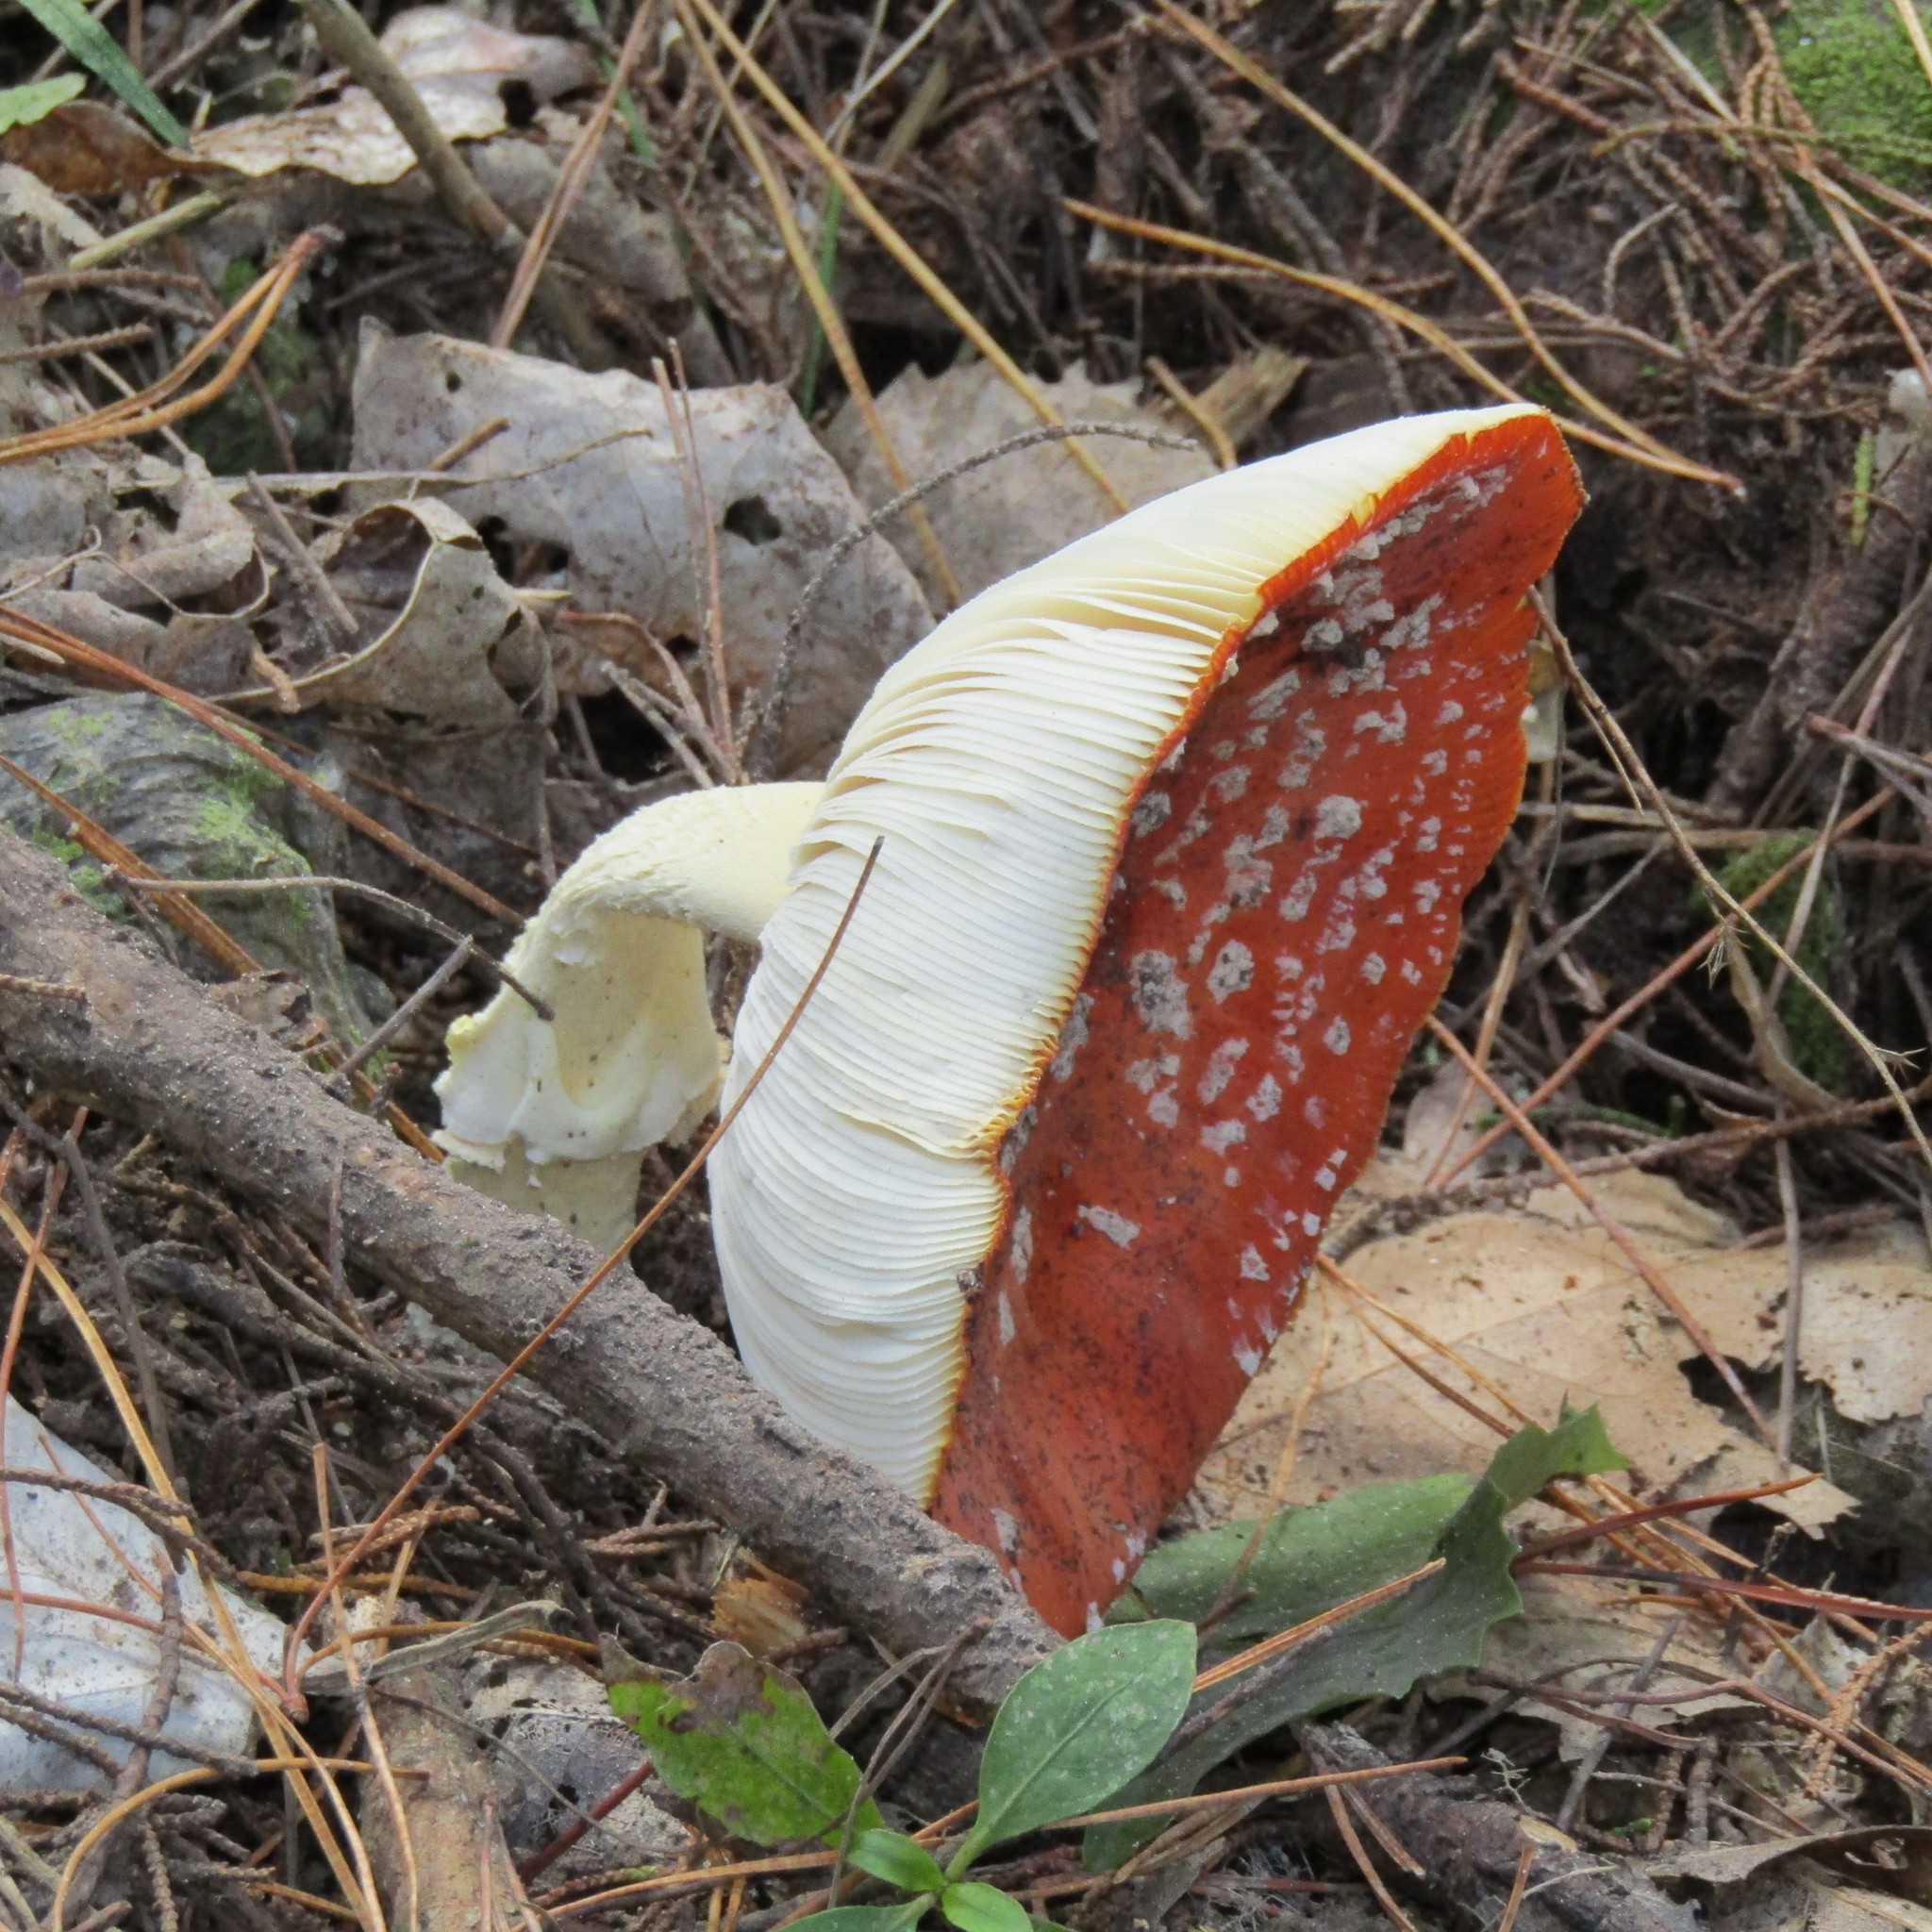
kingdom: Fungi
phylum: Basidiomycota
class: Agaricomycetes
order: Agaricales
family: Amanitaceae
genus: Amanita
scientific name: Amanita muscaria
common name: Fly agaric
